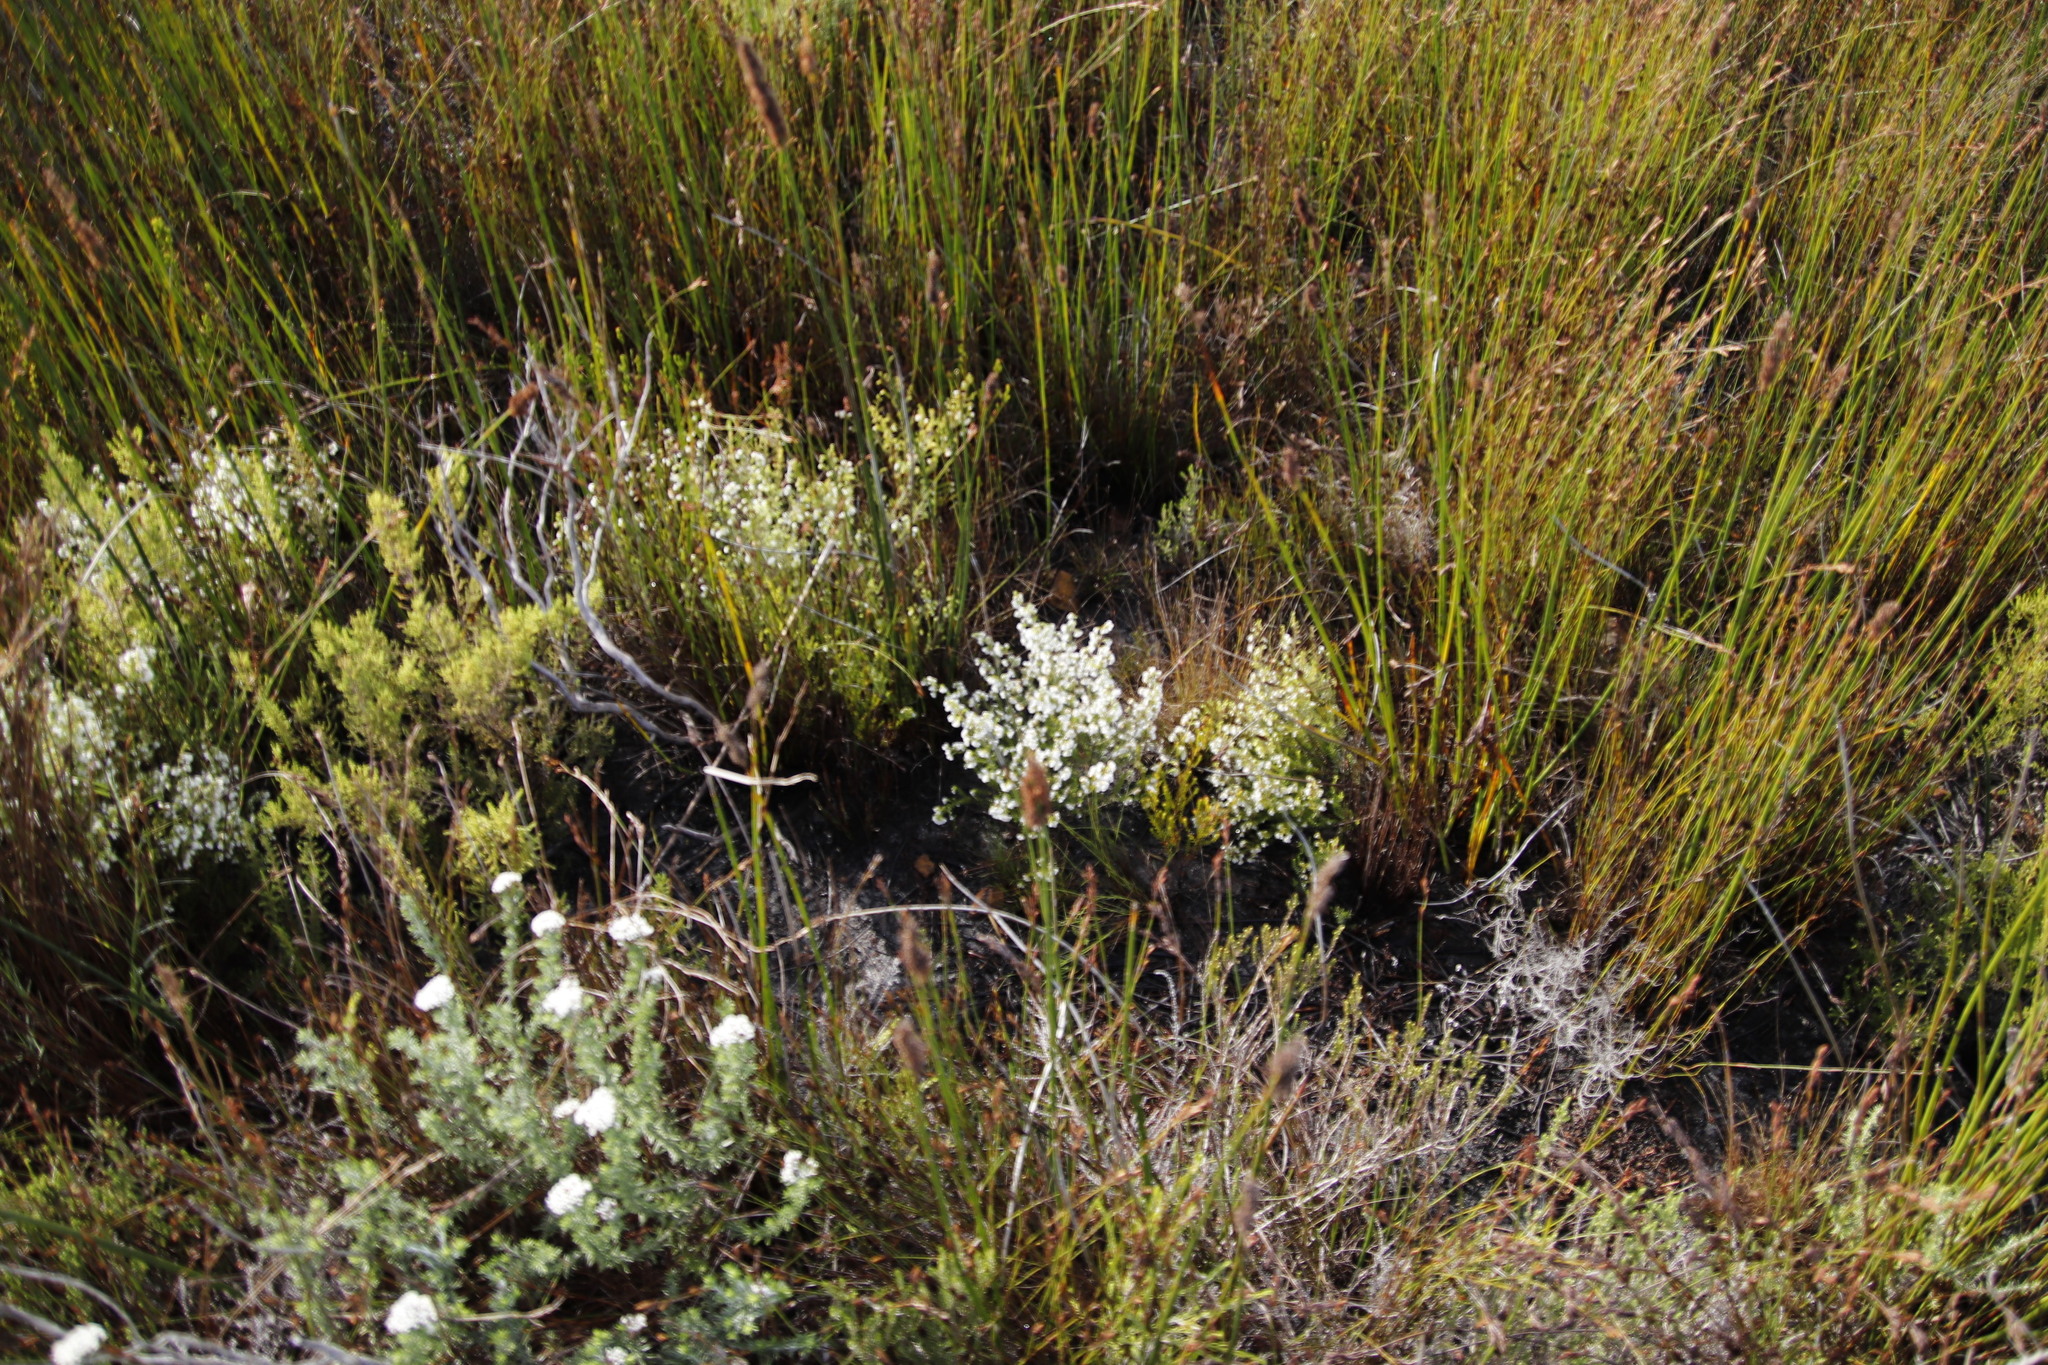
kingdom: Plantae
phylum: Tracheophyta
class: Magnoliopsida
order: Ericales
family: Ericaceae
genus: Erica
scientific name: Erica capensis
